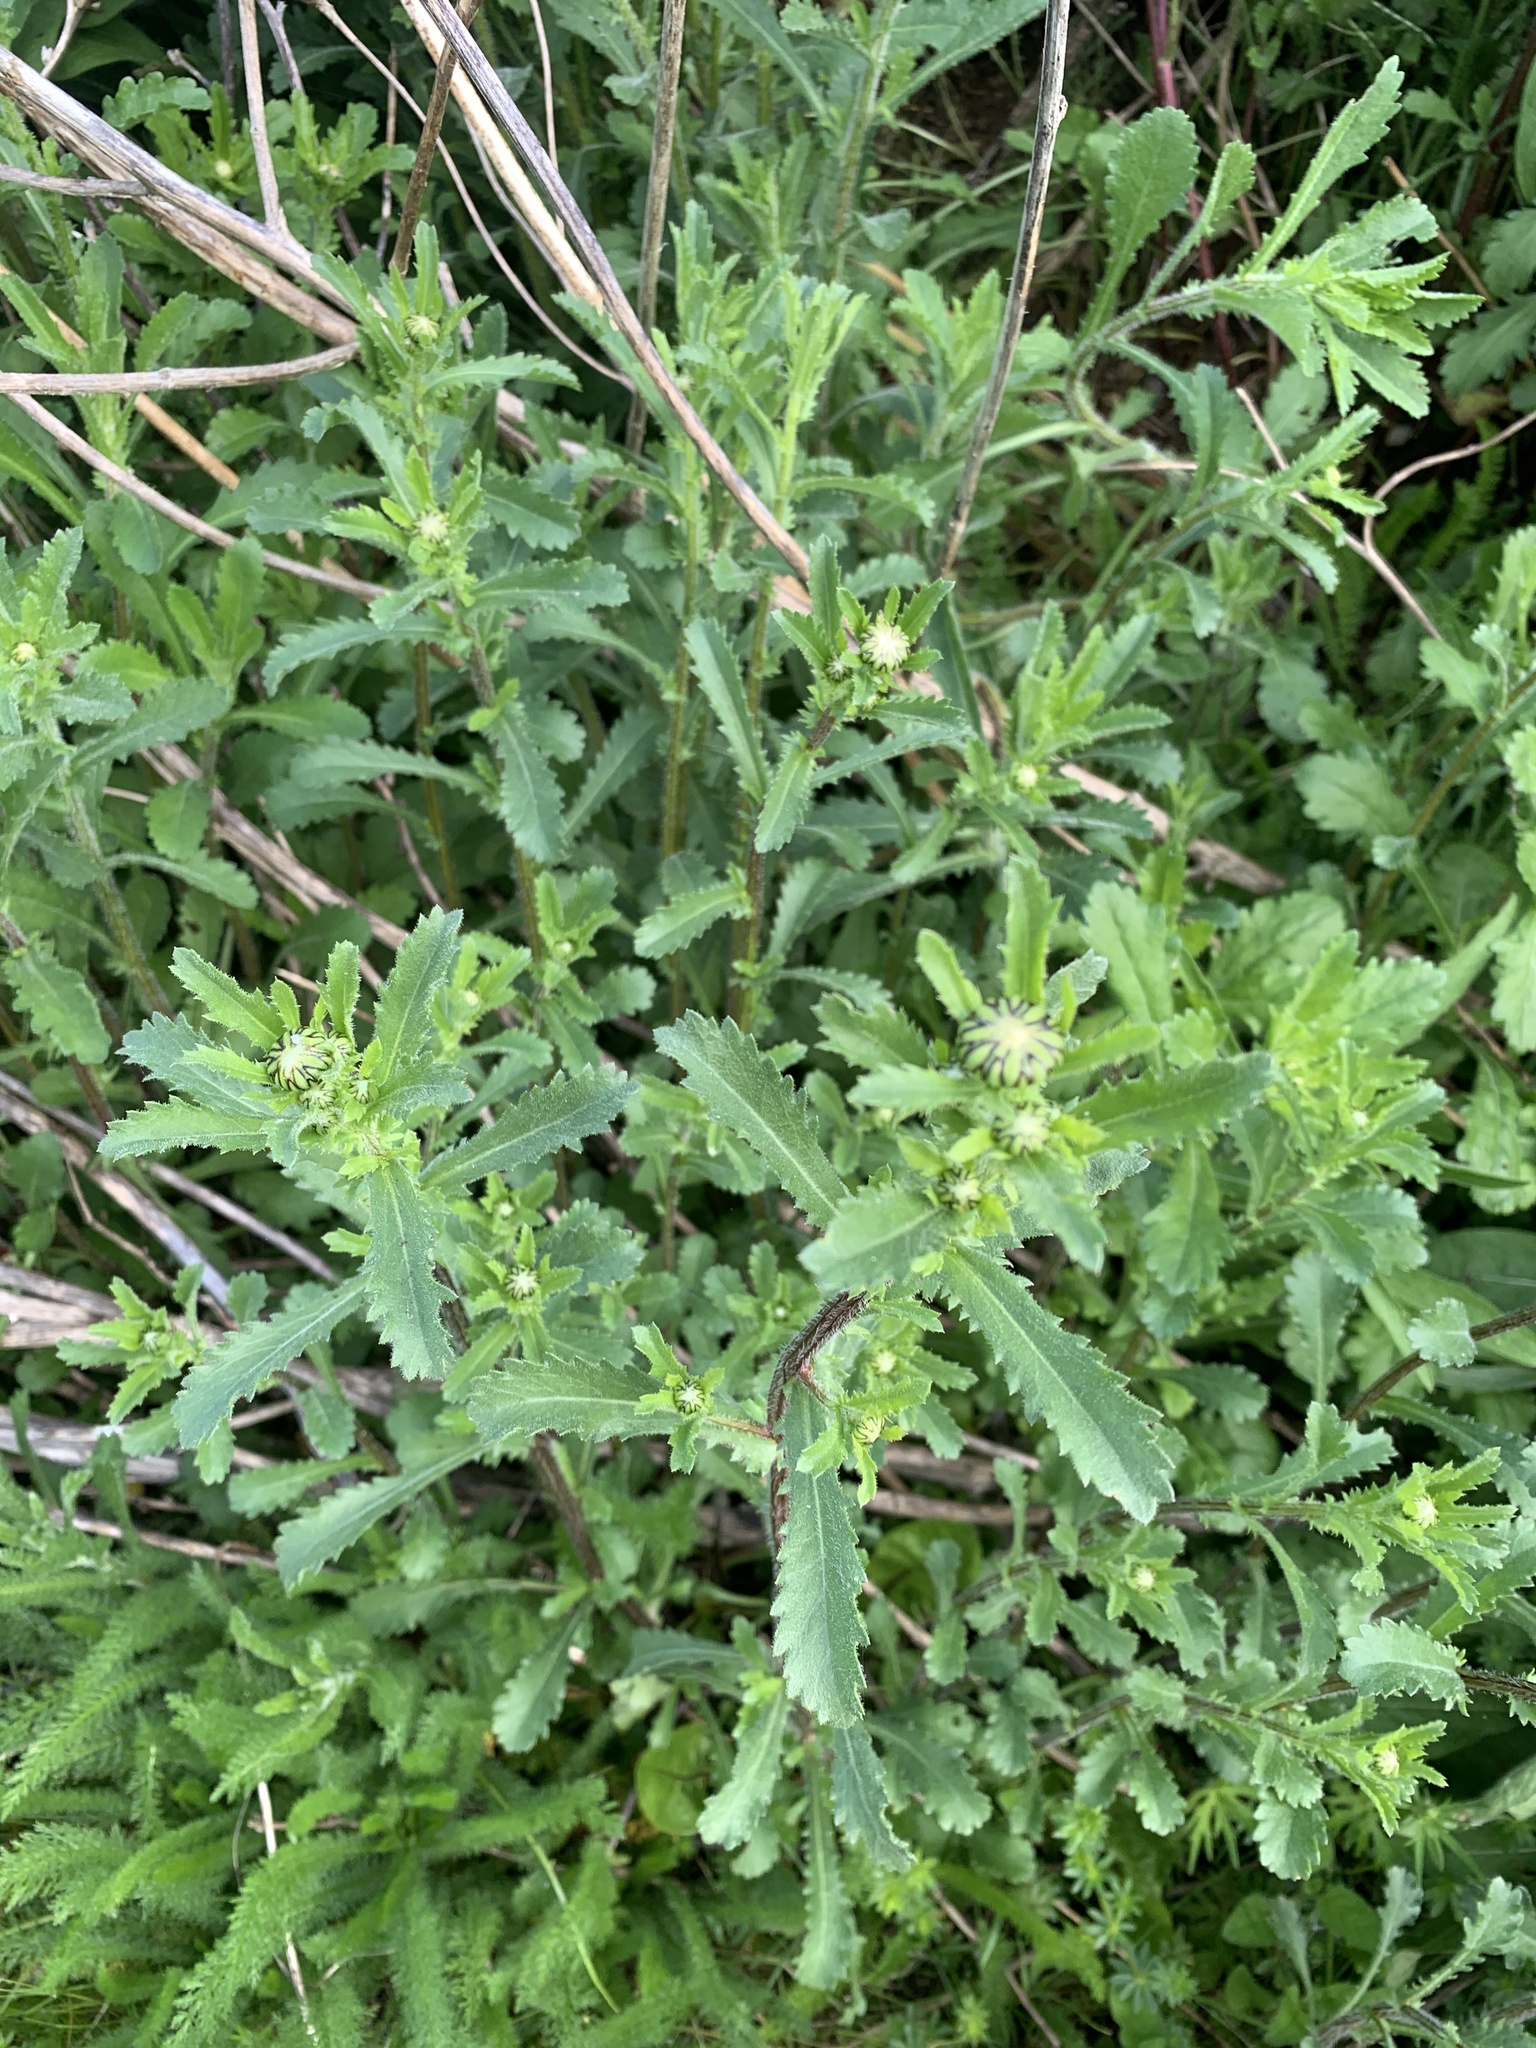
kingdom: Plantae
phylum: Tracheophyta
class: Magnoliopsida
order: Asterales
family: Asteraceae
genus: Leucanthemum
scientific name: Leucanthemum vulgare
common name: Oxeye daisy
